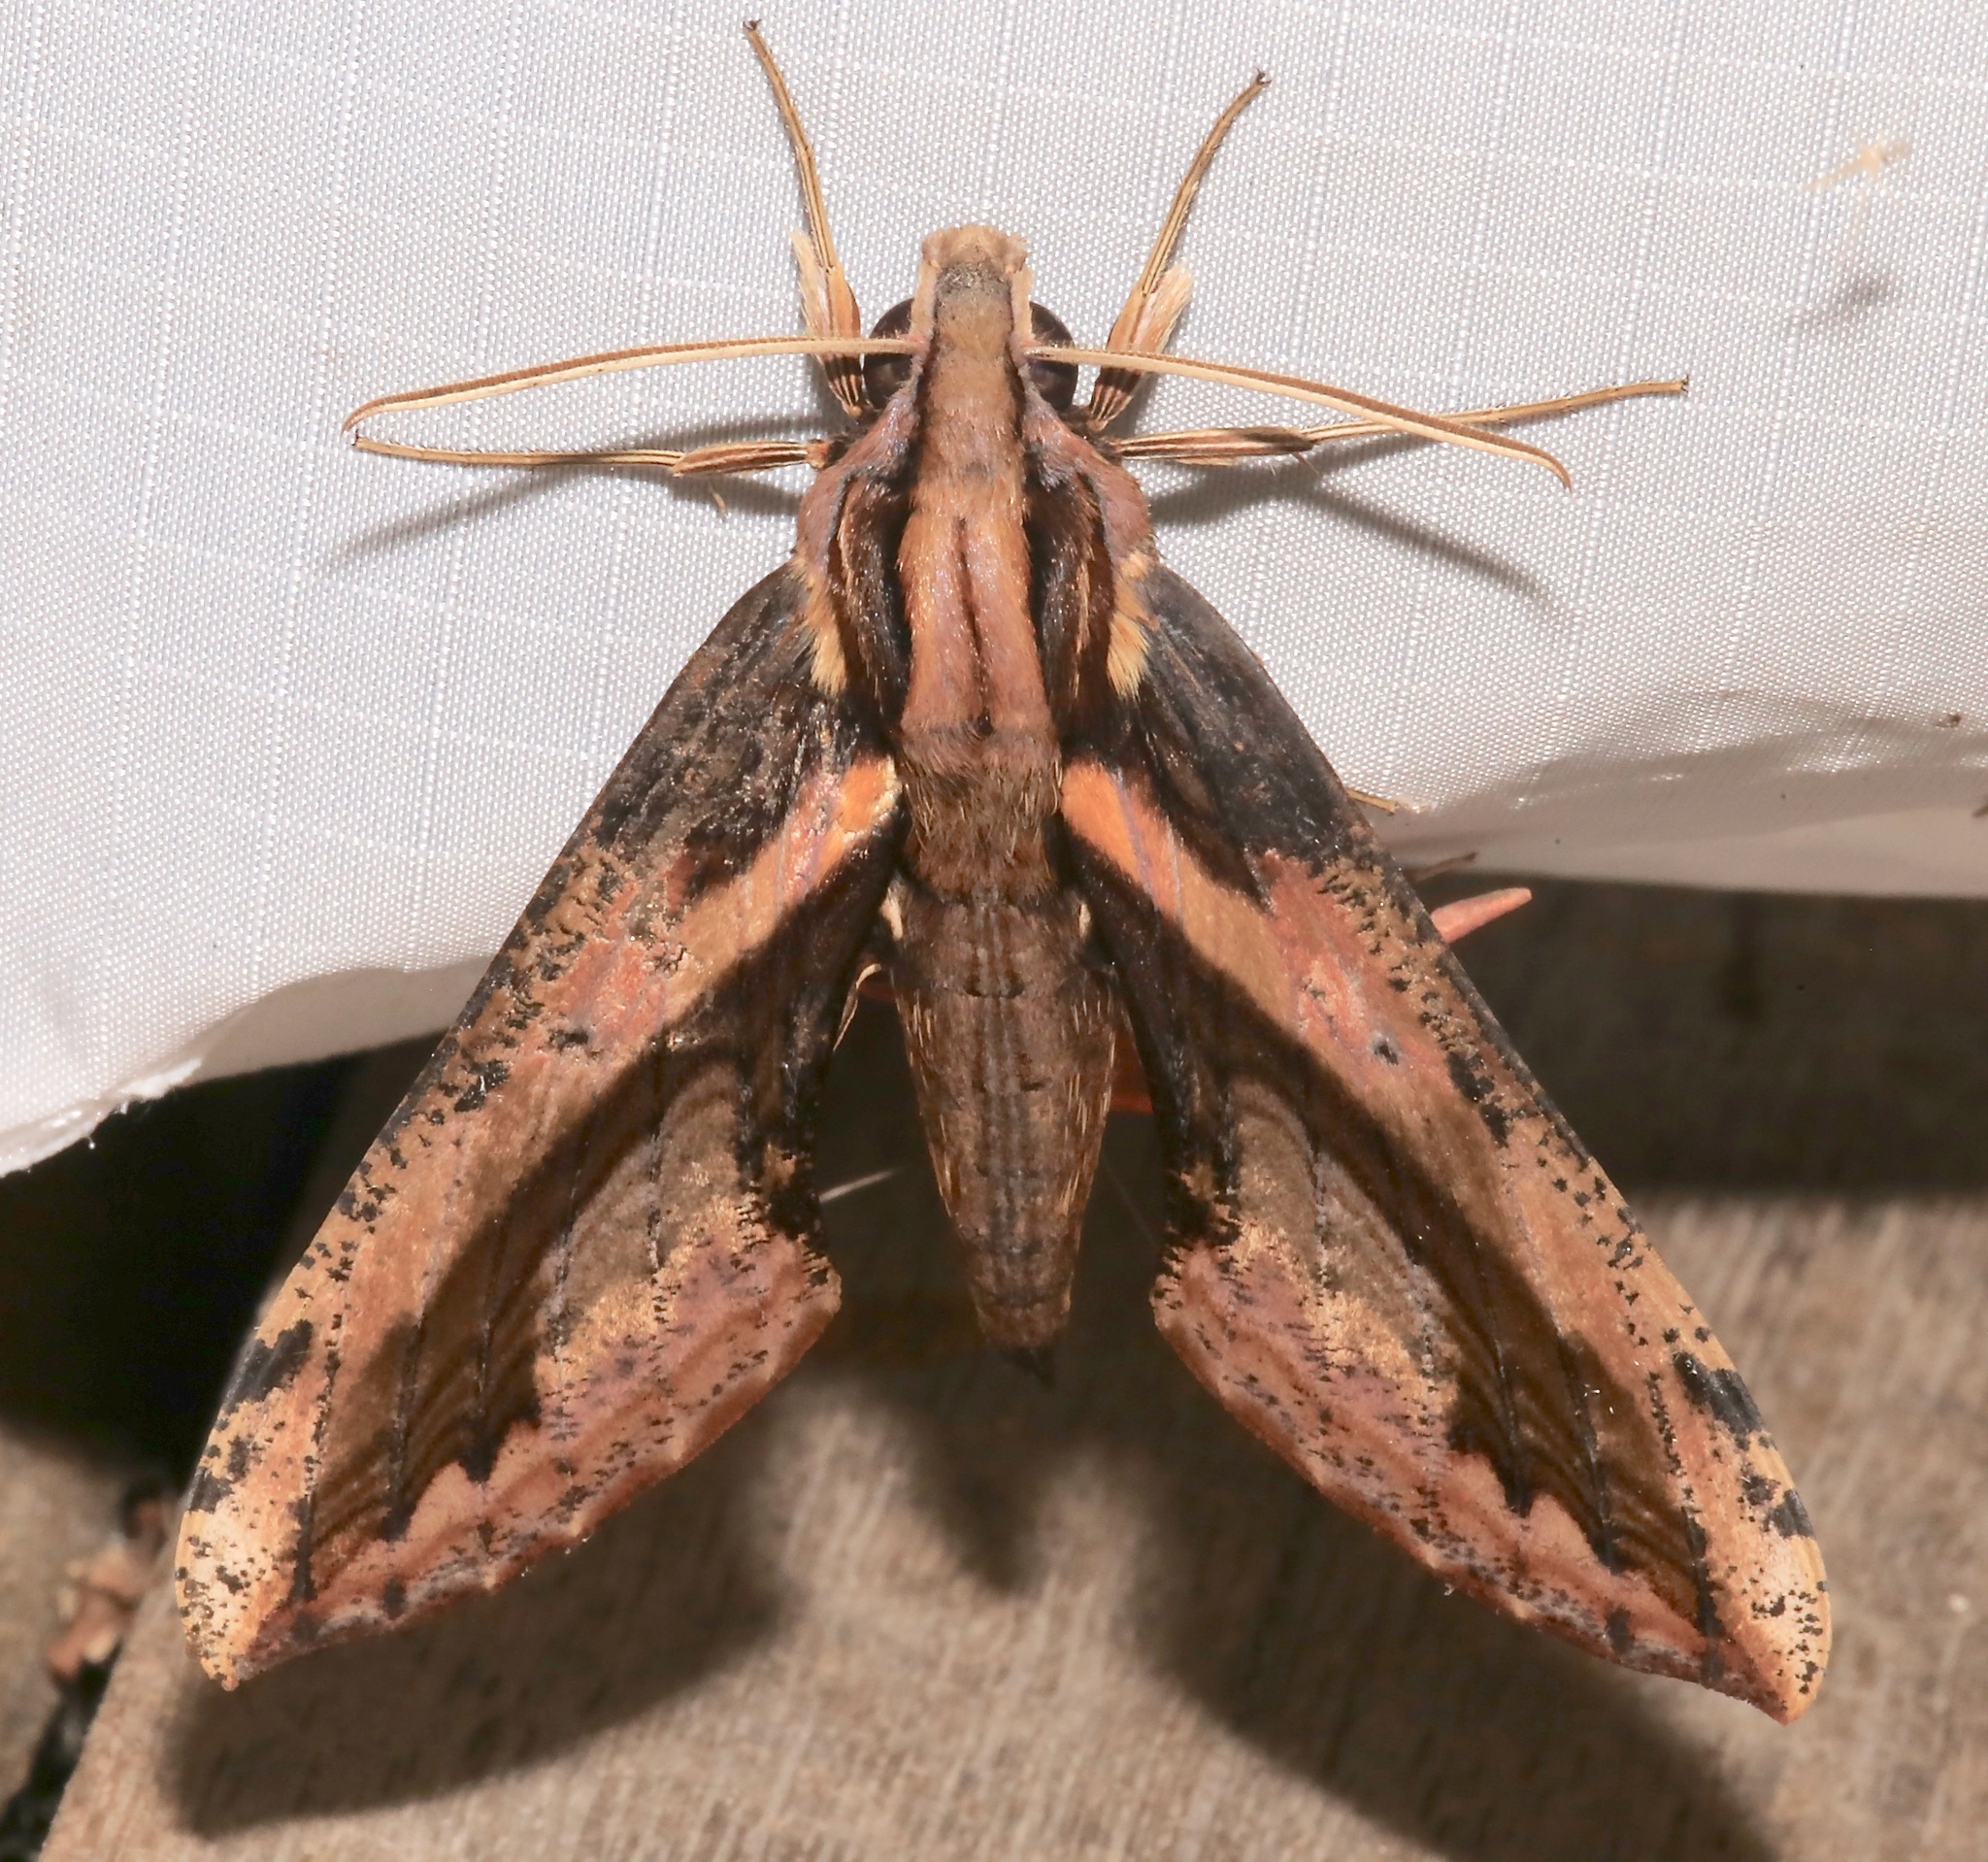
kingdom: Animalia
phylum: Arthropoda
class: Insecta
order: Lepidoptera
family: Sphingidae
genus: Xylophanes
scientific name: Xylophanes ceratomioides
